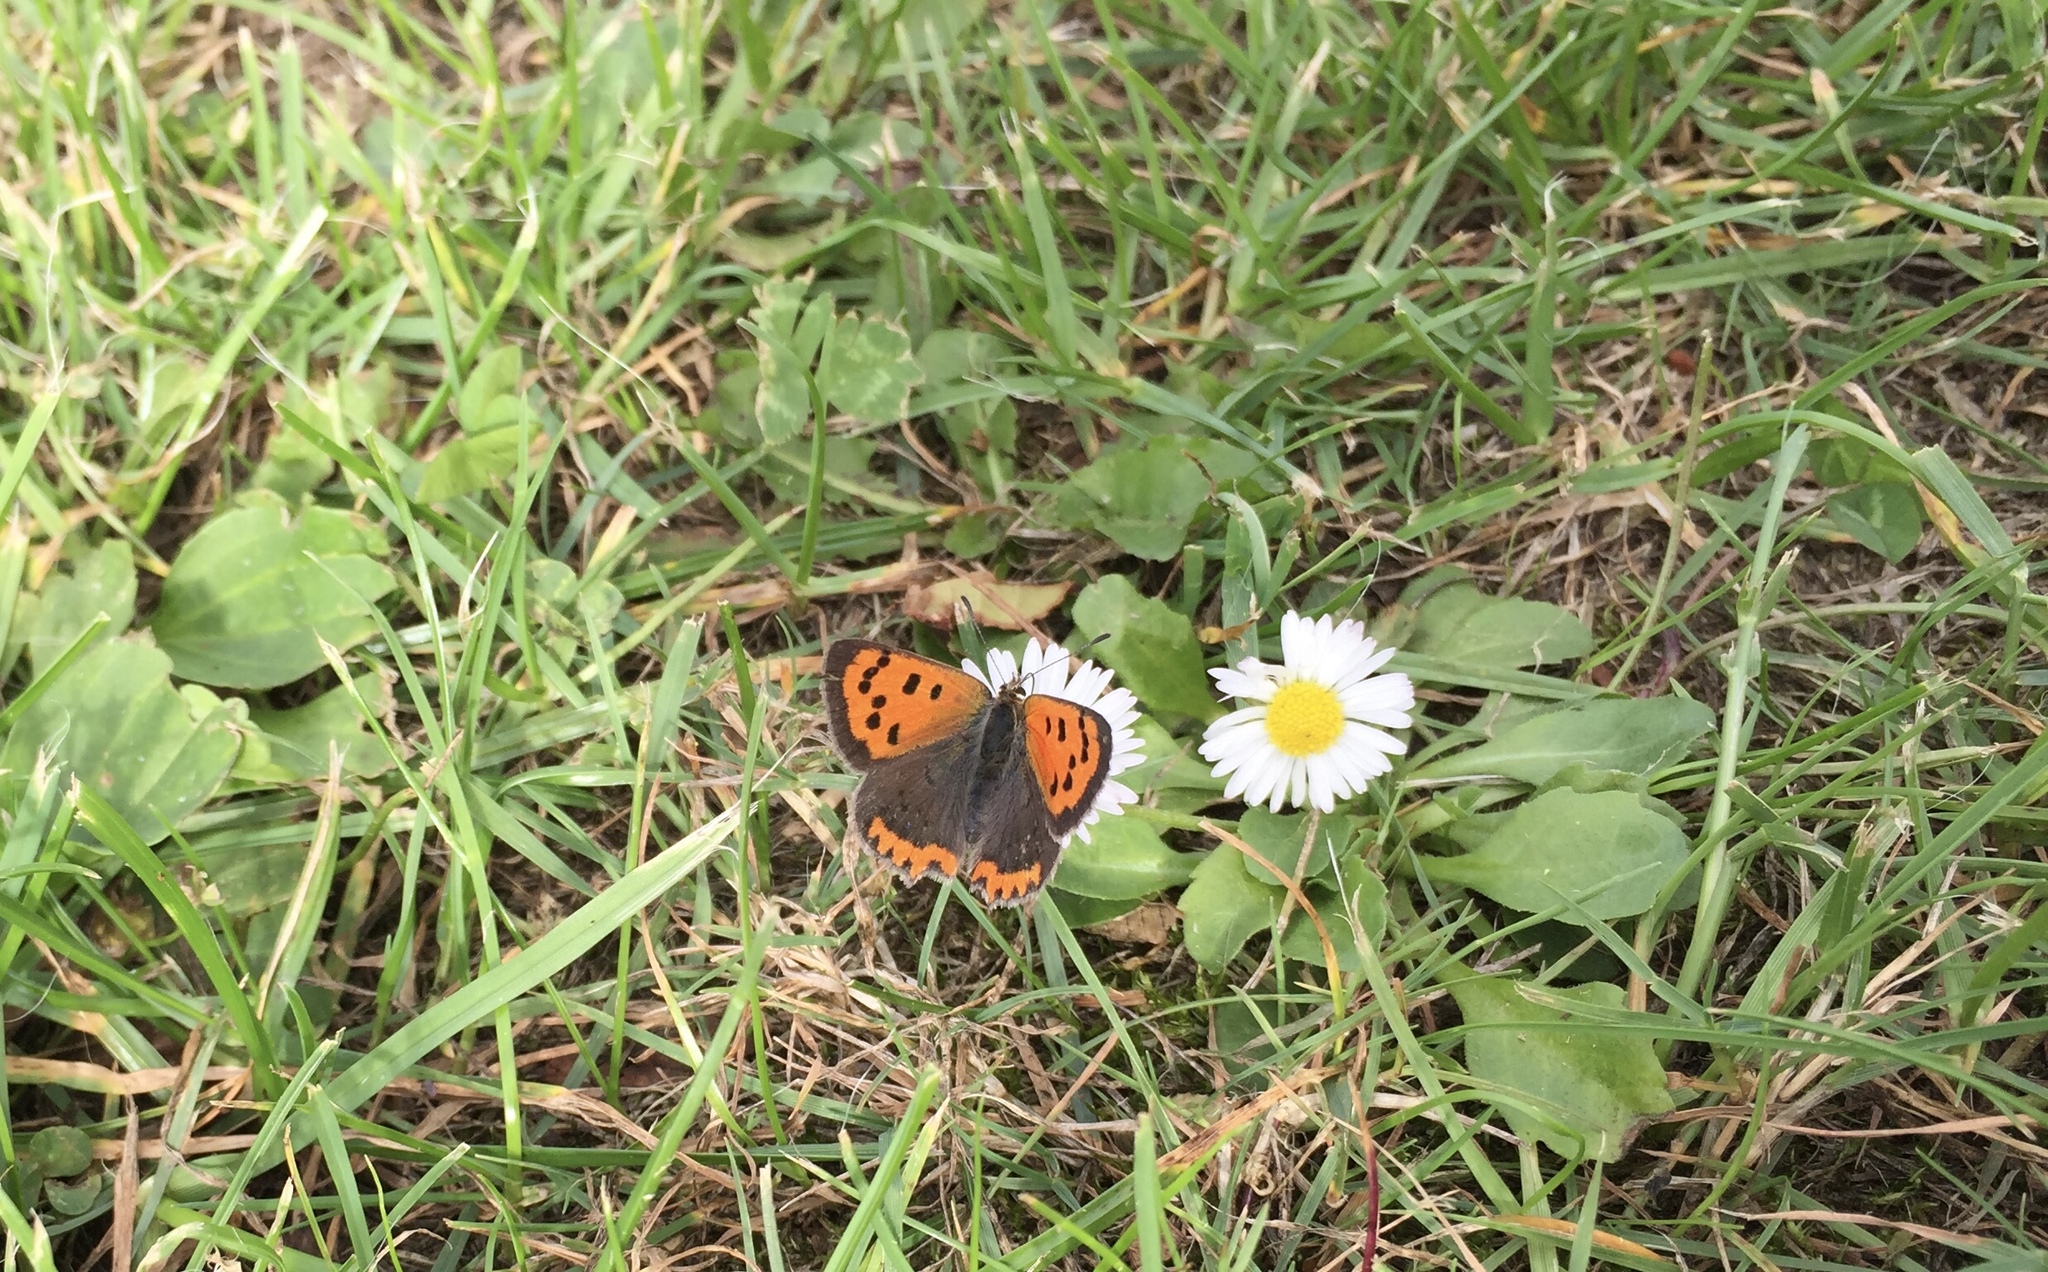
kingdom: Animalia
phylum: Arthropoda
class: Insecta
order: Lepidoptera
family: Lycaenidae
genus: Lycaena
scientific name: Lycaena phlaeas
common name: Small copper
